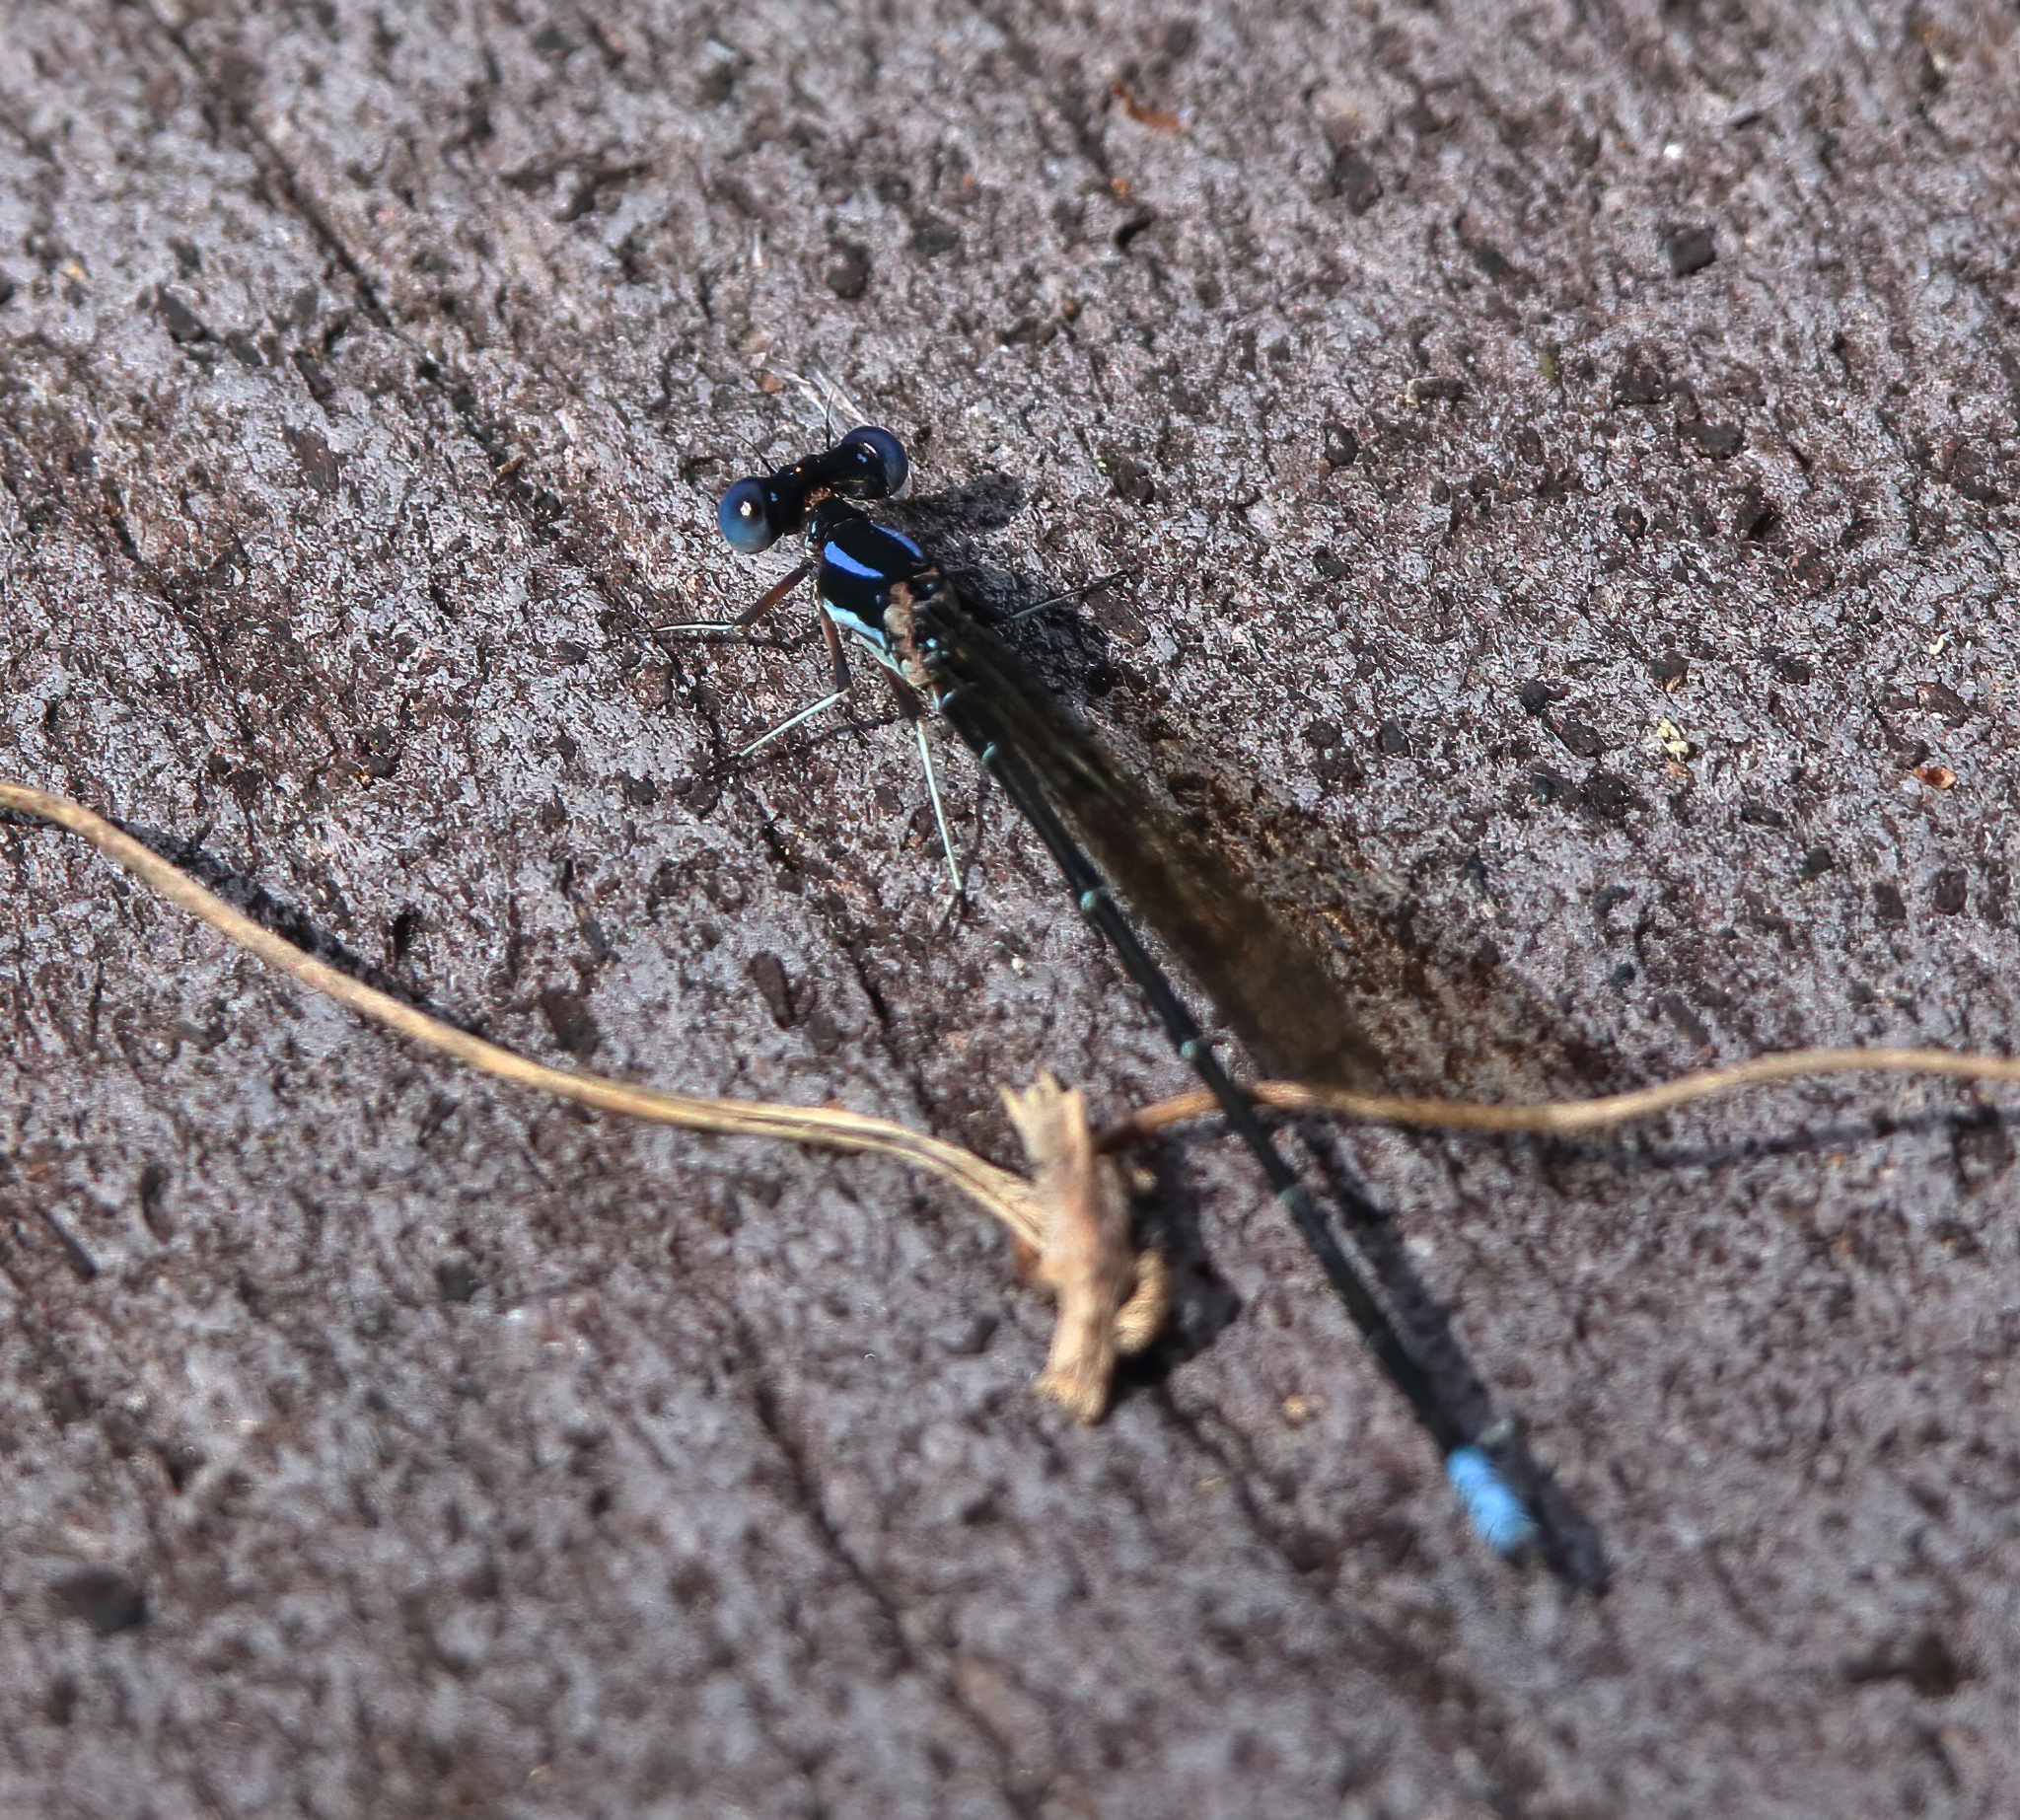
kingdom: Animalia
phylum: Arthropoda
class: Insecta
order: Odonata
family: Coenagrionidae
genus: Argia
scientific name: Argia sedula
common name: Blue-ringed dancer
